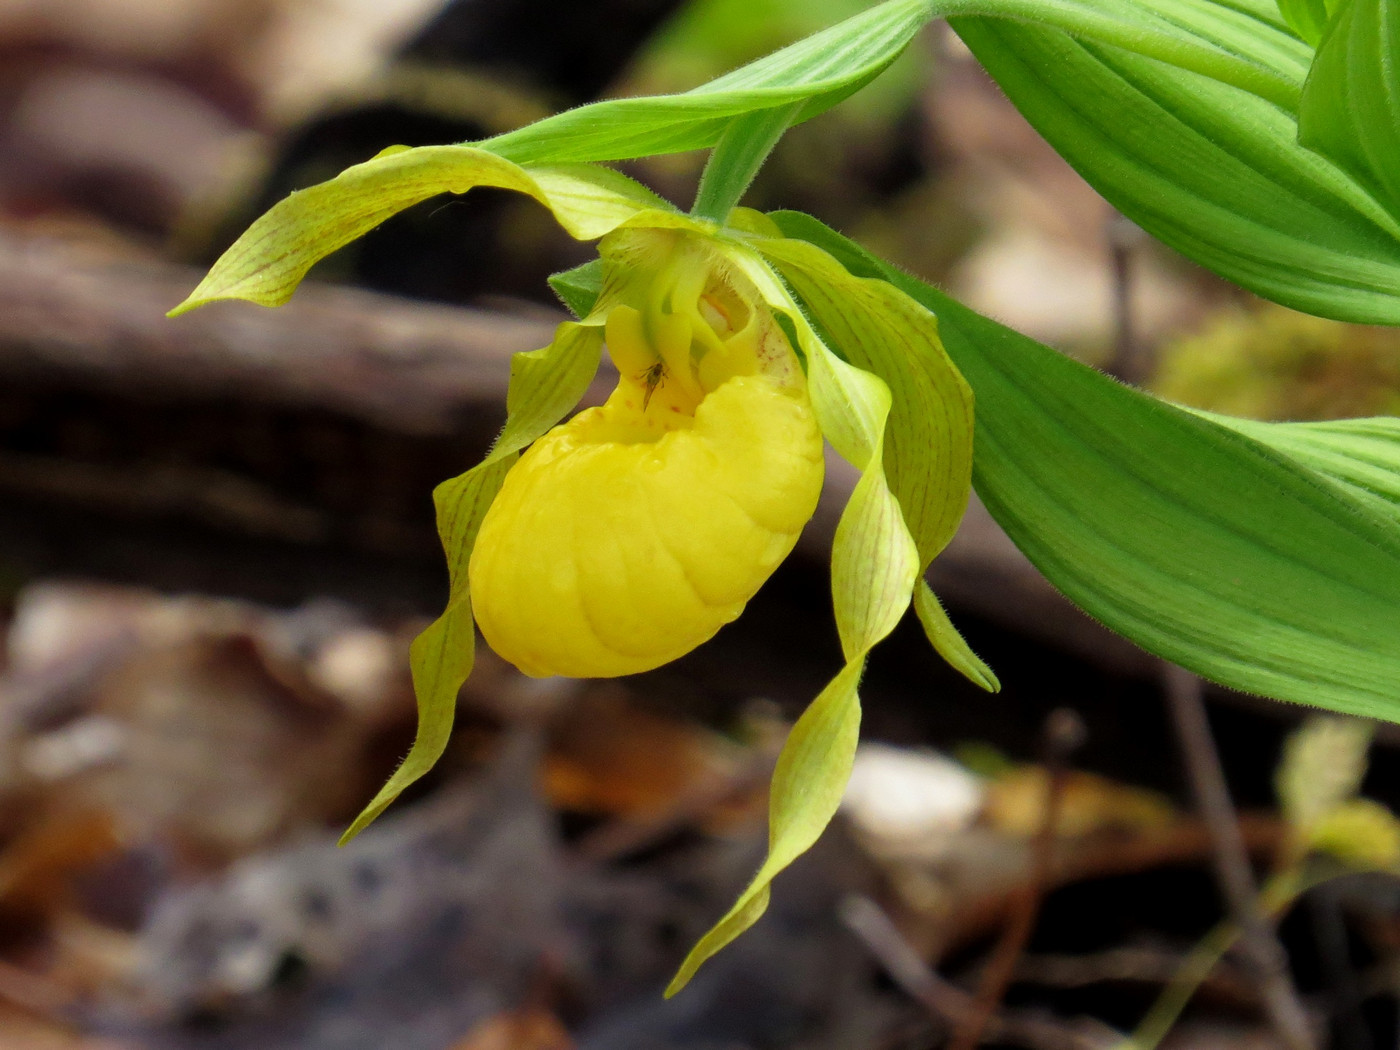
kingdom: Plantae
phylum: Tracheophyta
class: Liliopsida
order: Asparagales
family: Orchidaceae
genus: Cypripedium
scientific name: Cypripedium parviflorum
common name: American yellow lady's-slipper
